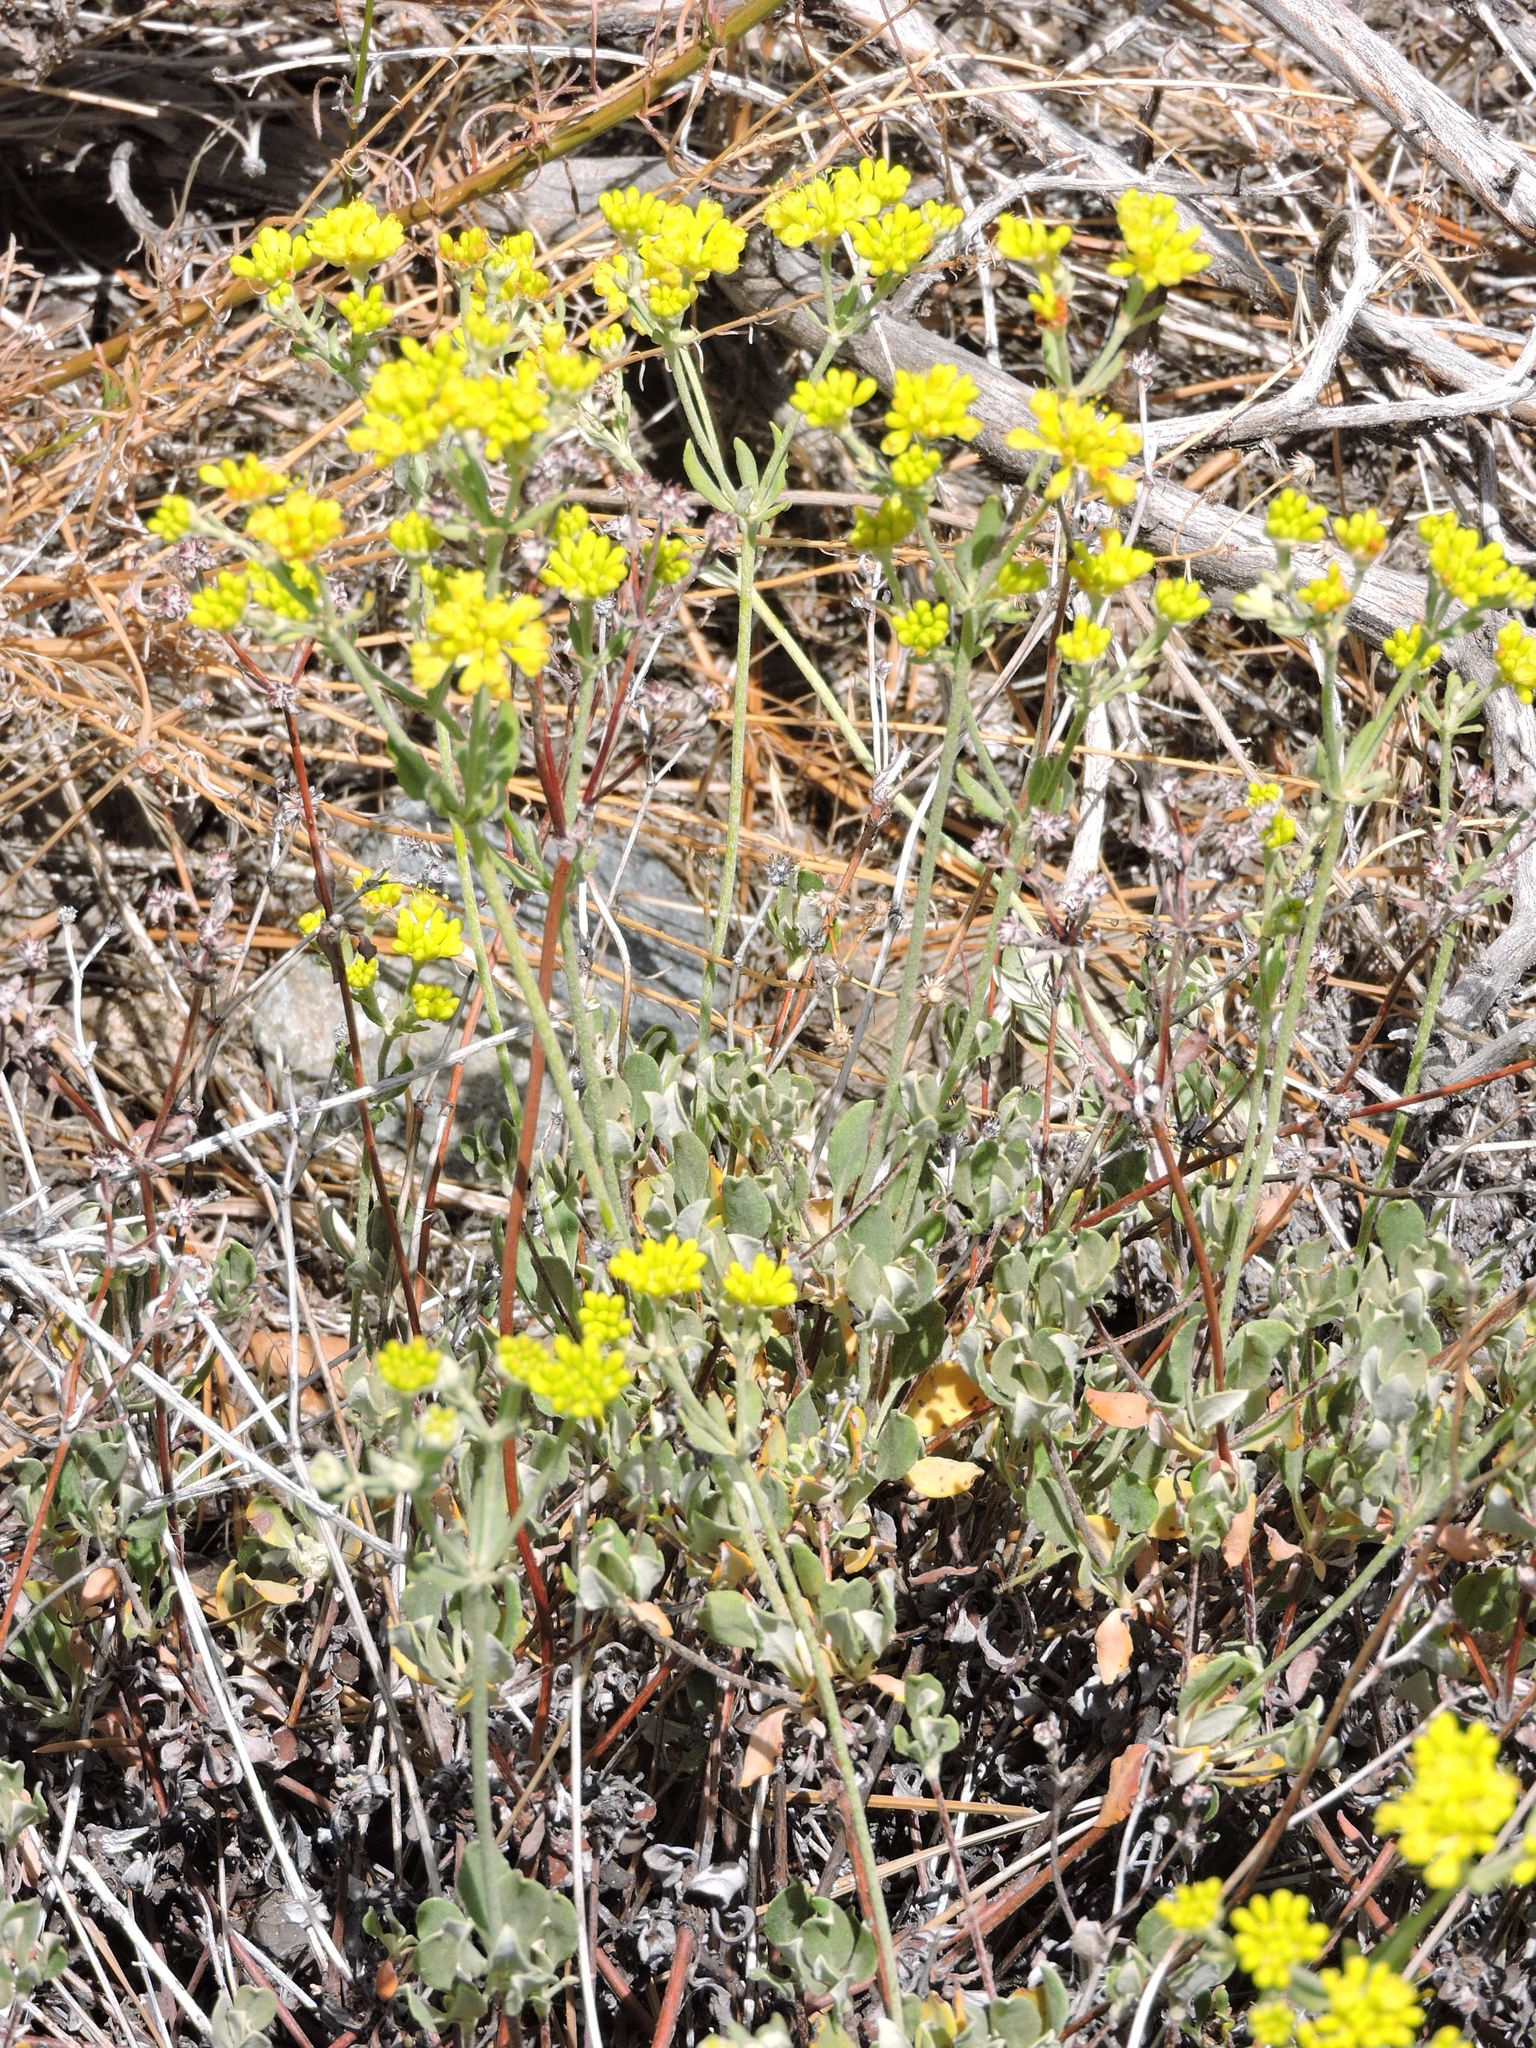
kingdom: Plantae
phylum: Tracheophyta
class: Magnoliopsida
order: Caryophyllales
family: Polygonaceae
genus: Eriogonum
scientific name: Eriogonum umbellatum
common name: Sulfur-buckwheat
